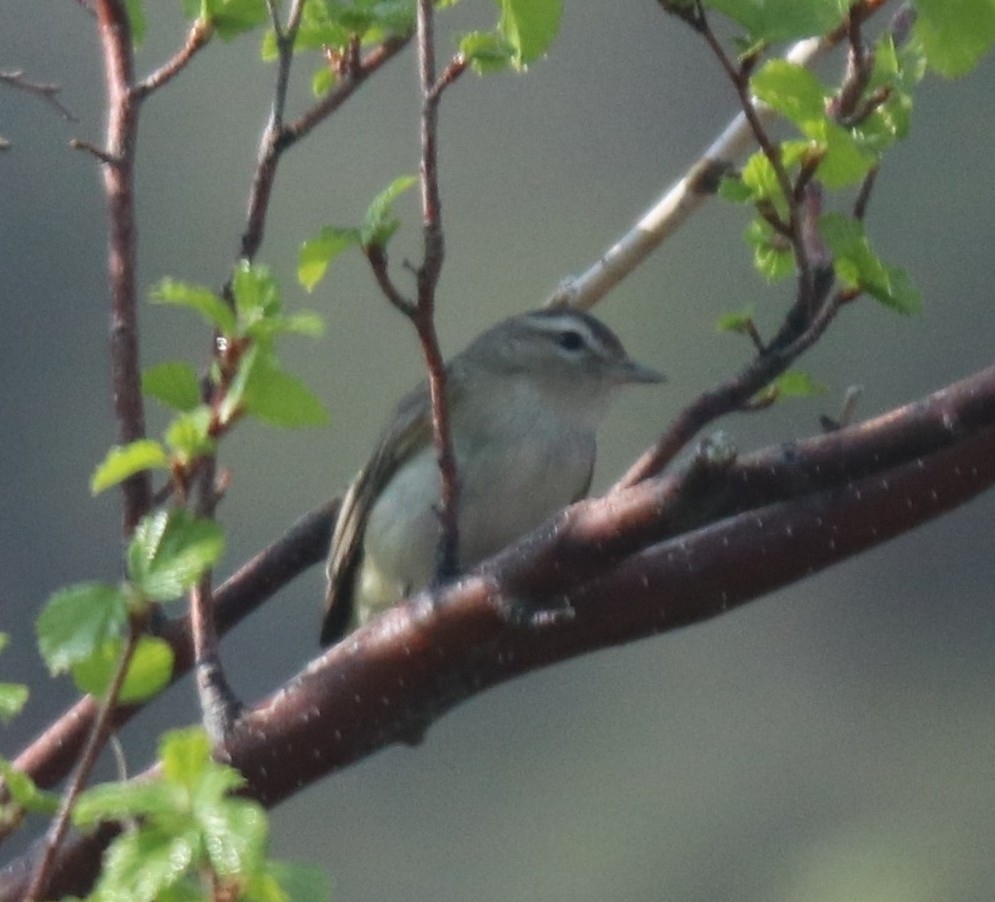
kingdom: Animalia
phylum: Chordata
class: Aves
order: Passeriformes
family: Vireonidae
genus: Vireo
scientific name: Vireo gilvus
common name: Warbling vireo
